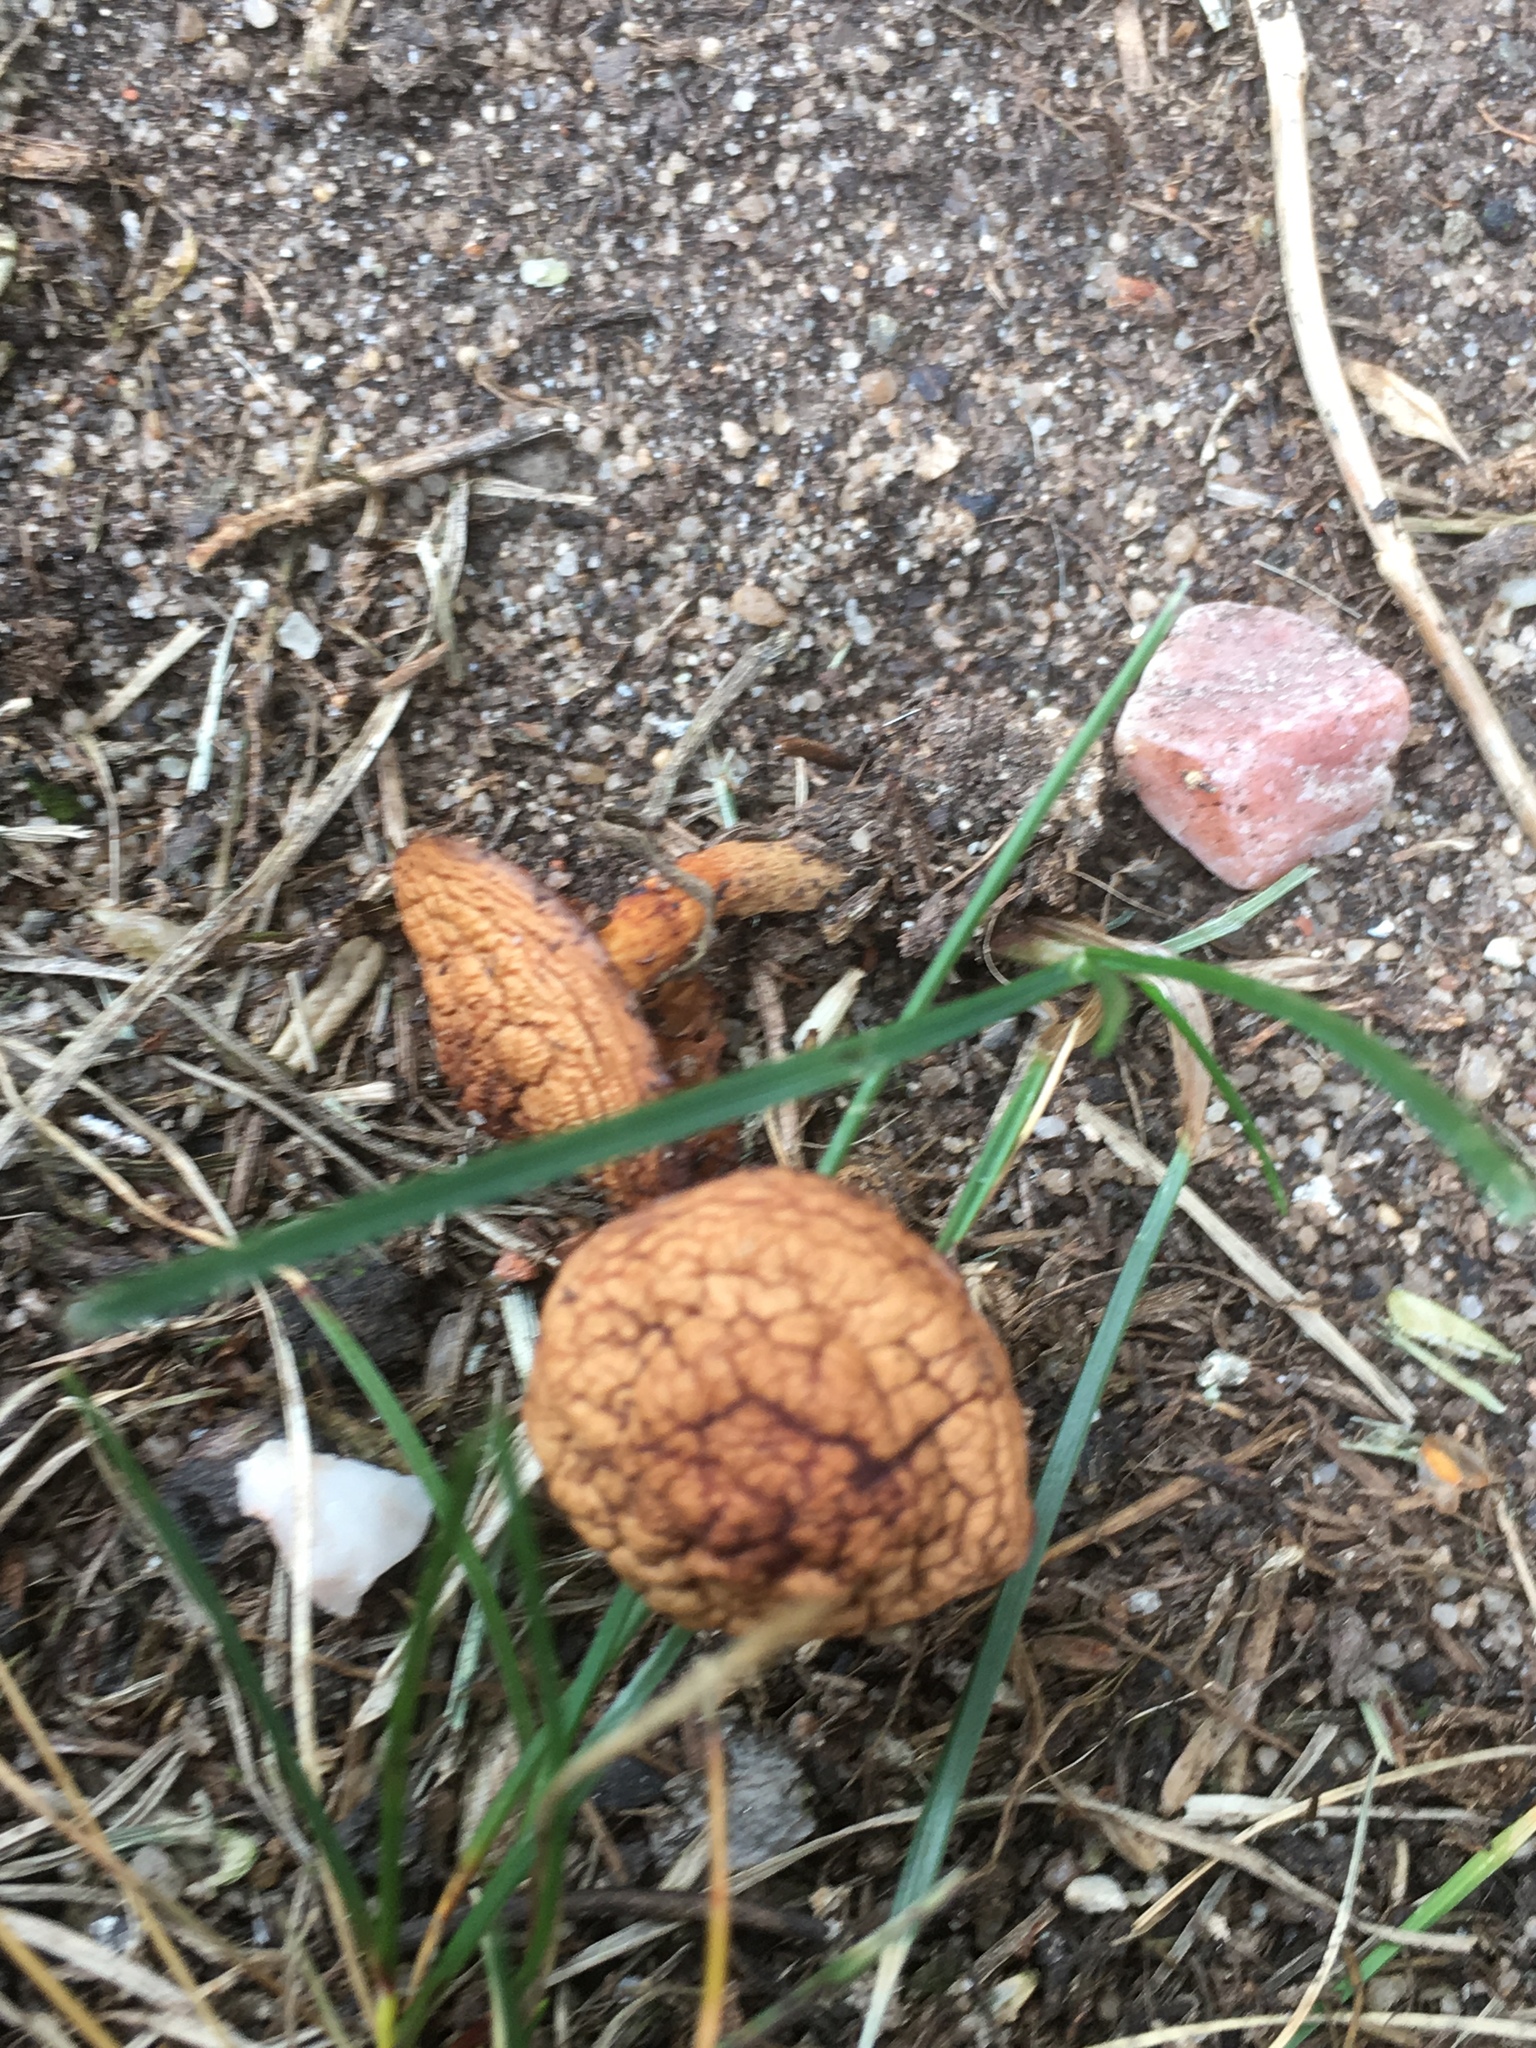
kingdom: Fungi
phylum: Basidiomycota
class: Agaricomycetes
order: Agaricales
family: Marasmiaceae
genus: Marasmius
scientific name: Marasmius oreades
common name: Fairy ring champignon
